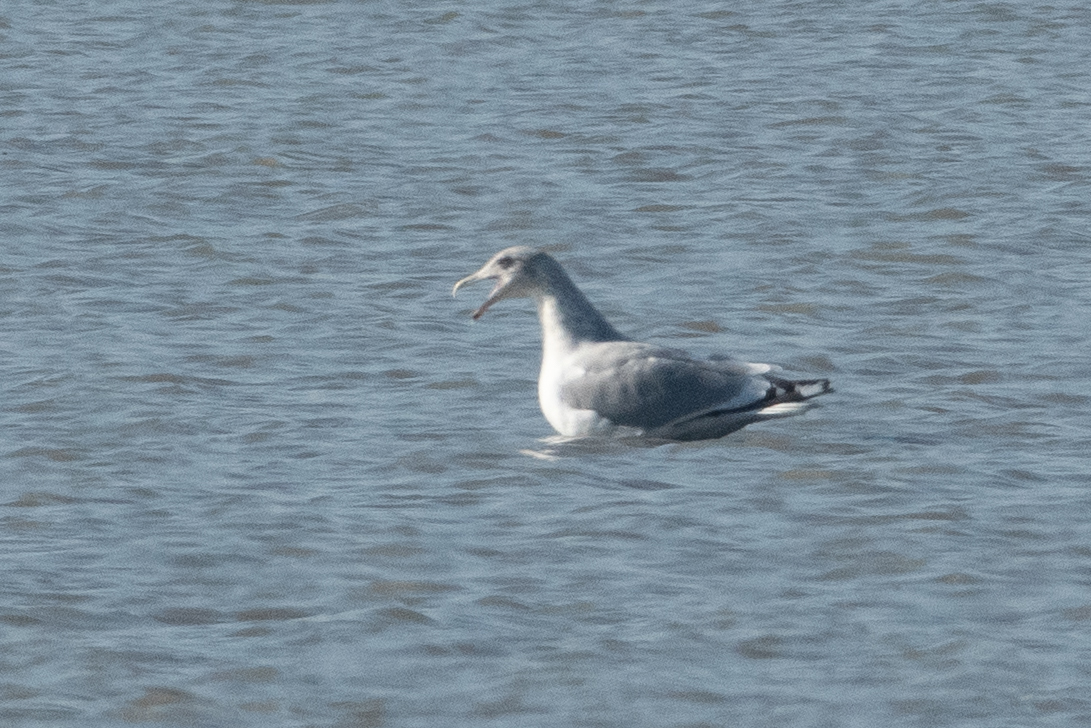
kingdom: Animalia
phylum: Chordata
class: Aves
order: Charadriiformes
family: Laridae
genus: Larus
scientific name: Larus
